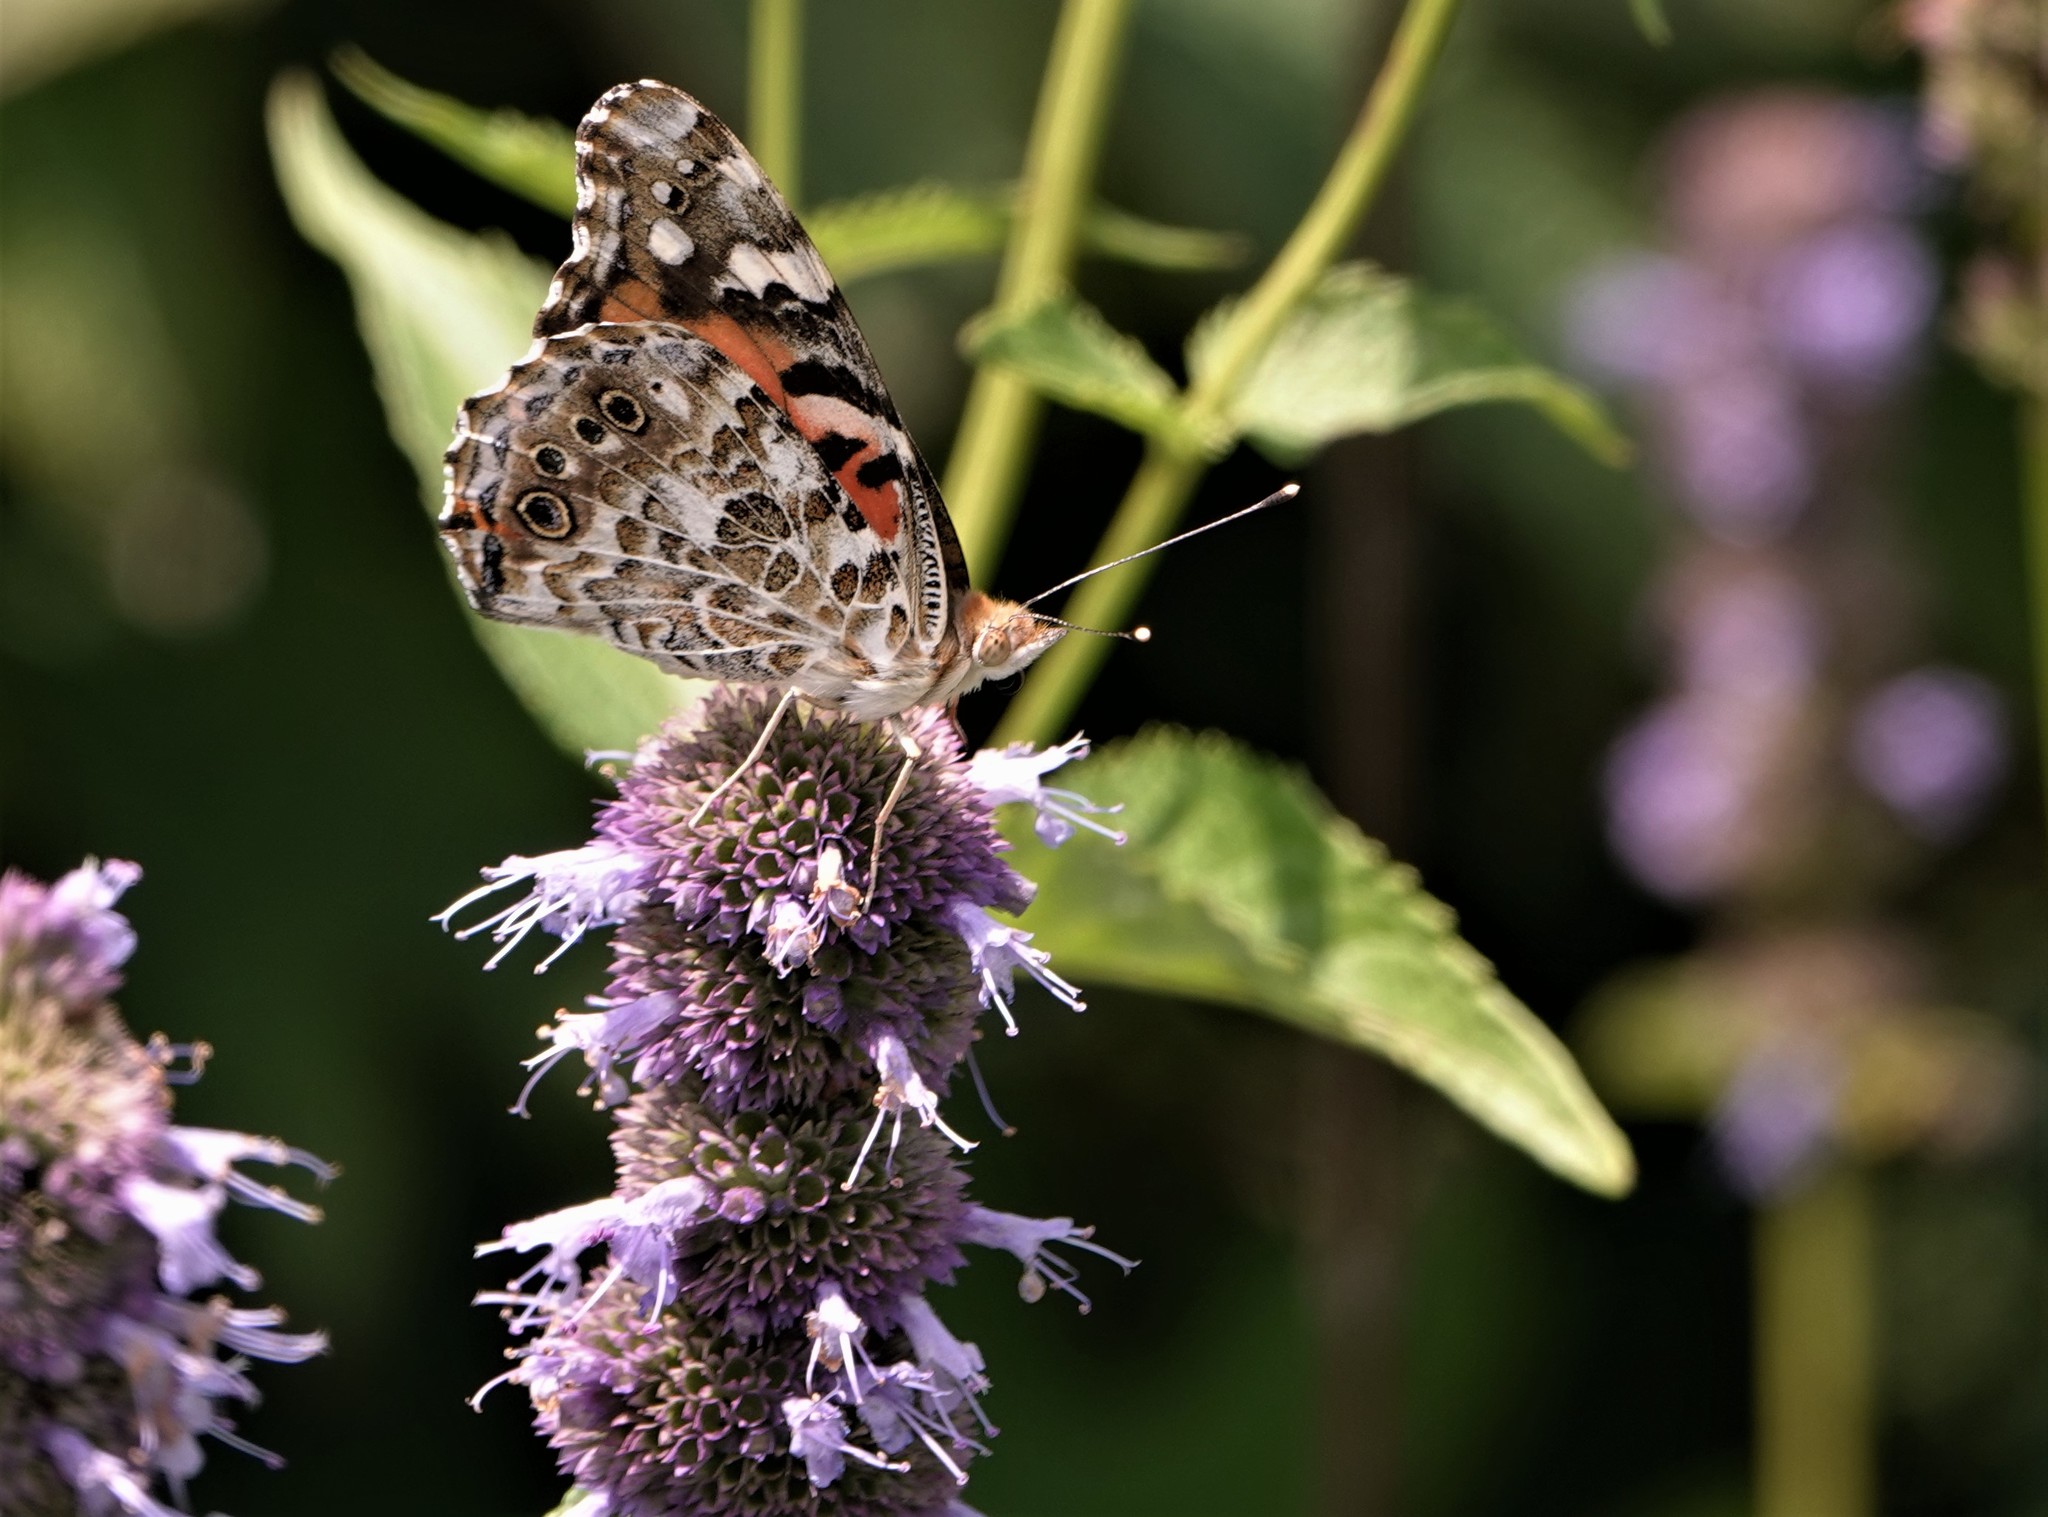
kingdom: Animalia
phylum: Arthropoda
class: Insecta
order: Lepidoptera
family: Nymphalidae
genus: Vanessa
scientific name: Vanessa cardui
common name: Painted lady
